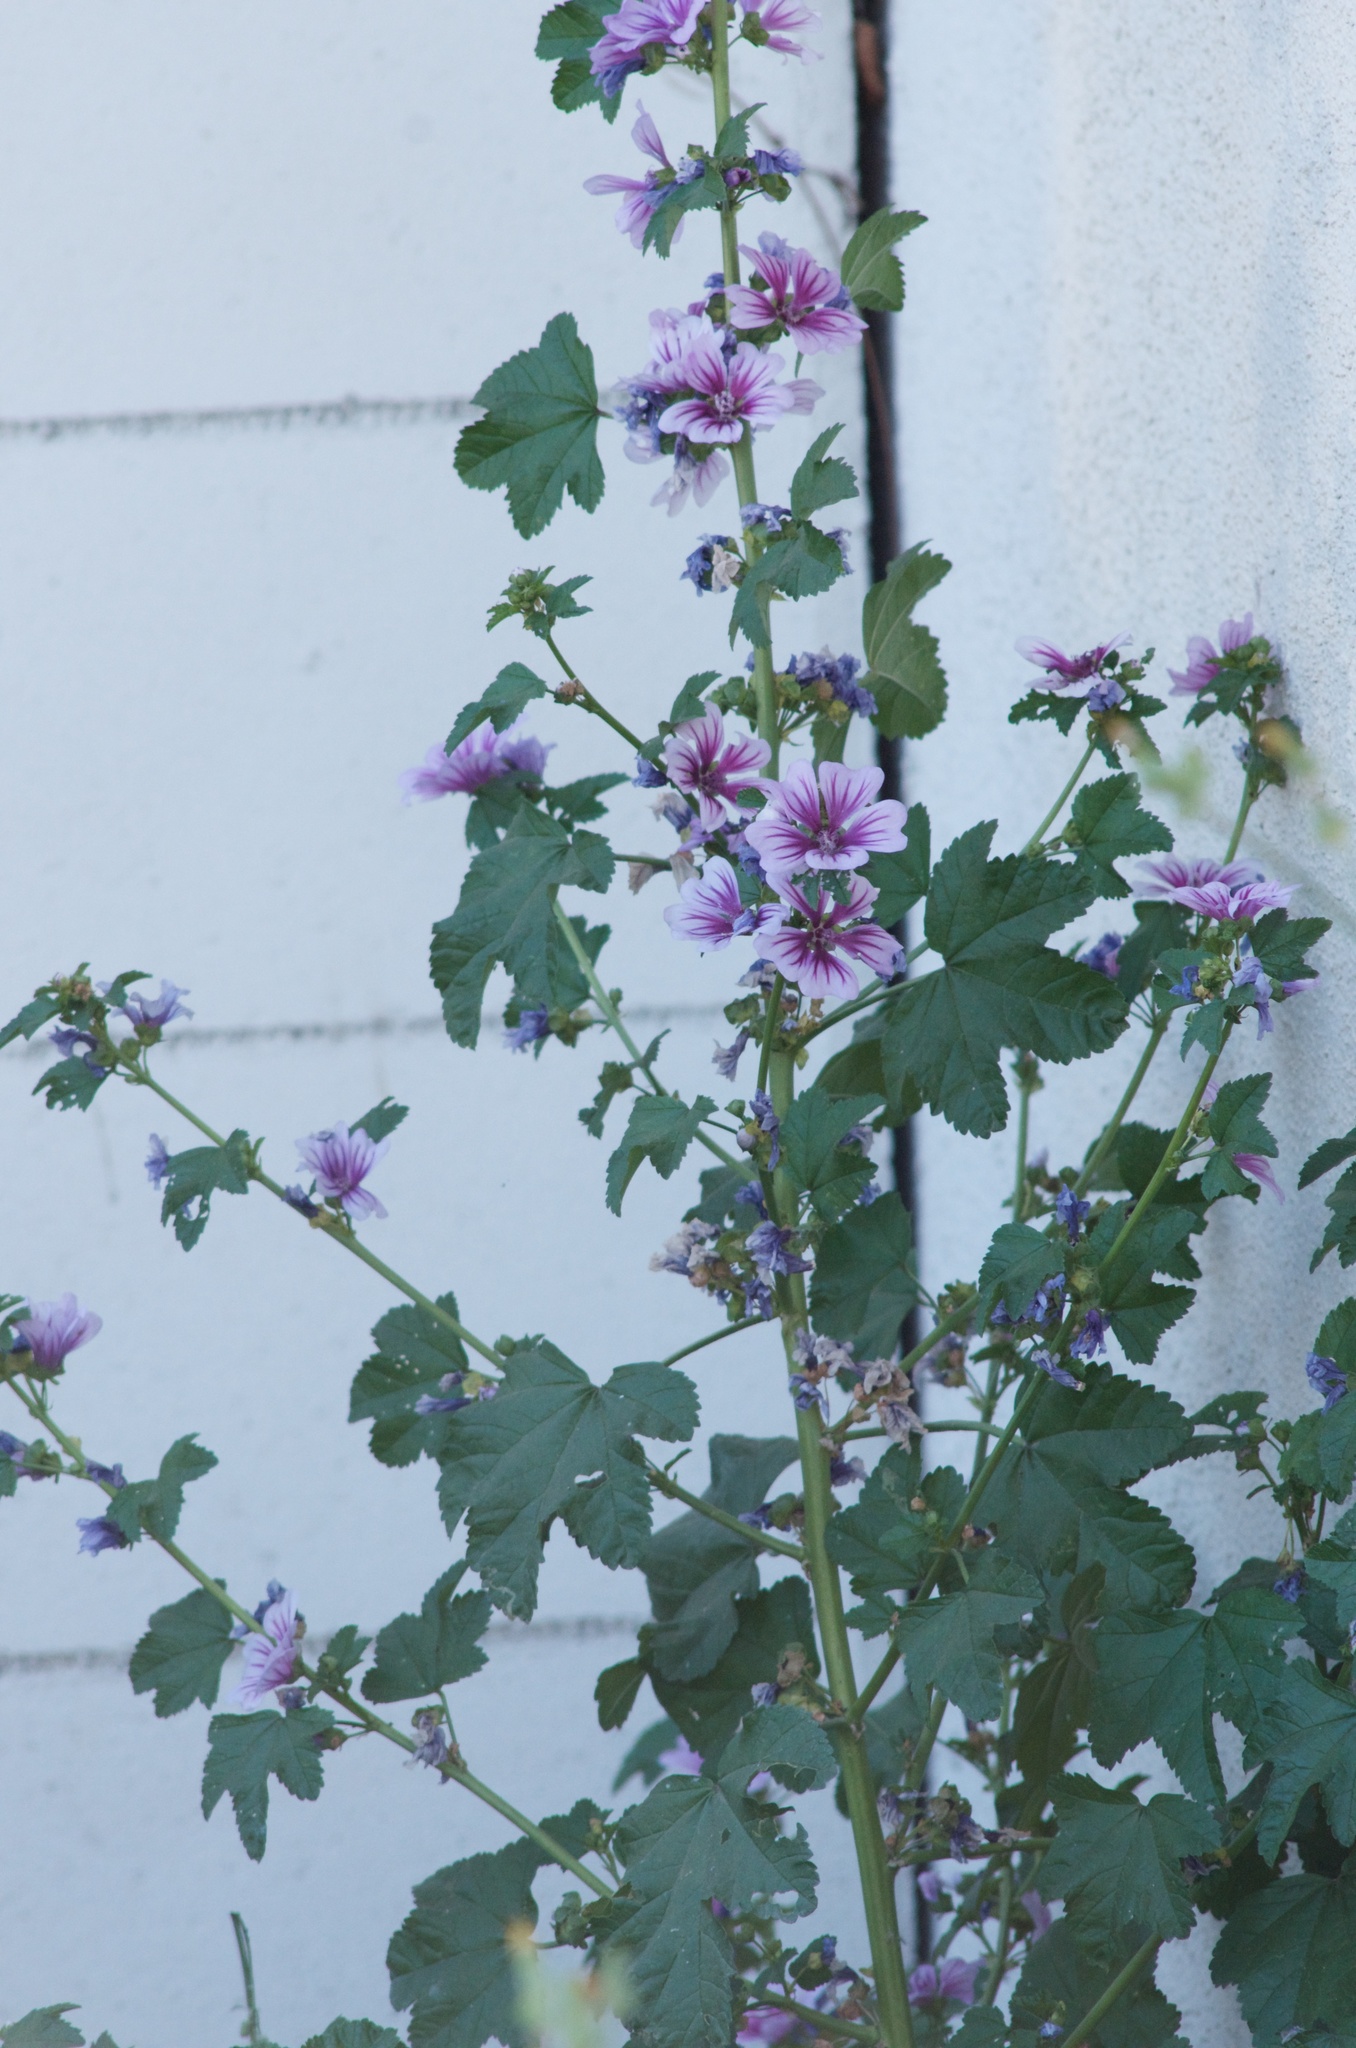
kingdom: Plantae
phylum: Tracheophyta
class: Magnoliopsida
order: Malvales
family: Malvaceae
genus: Malva
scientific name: Malva sylvestris
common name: Common mallow
